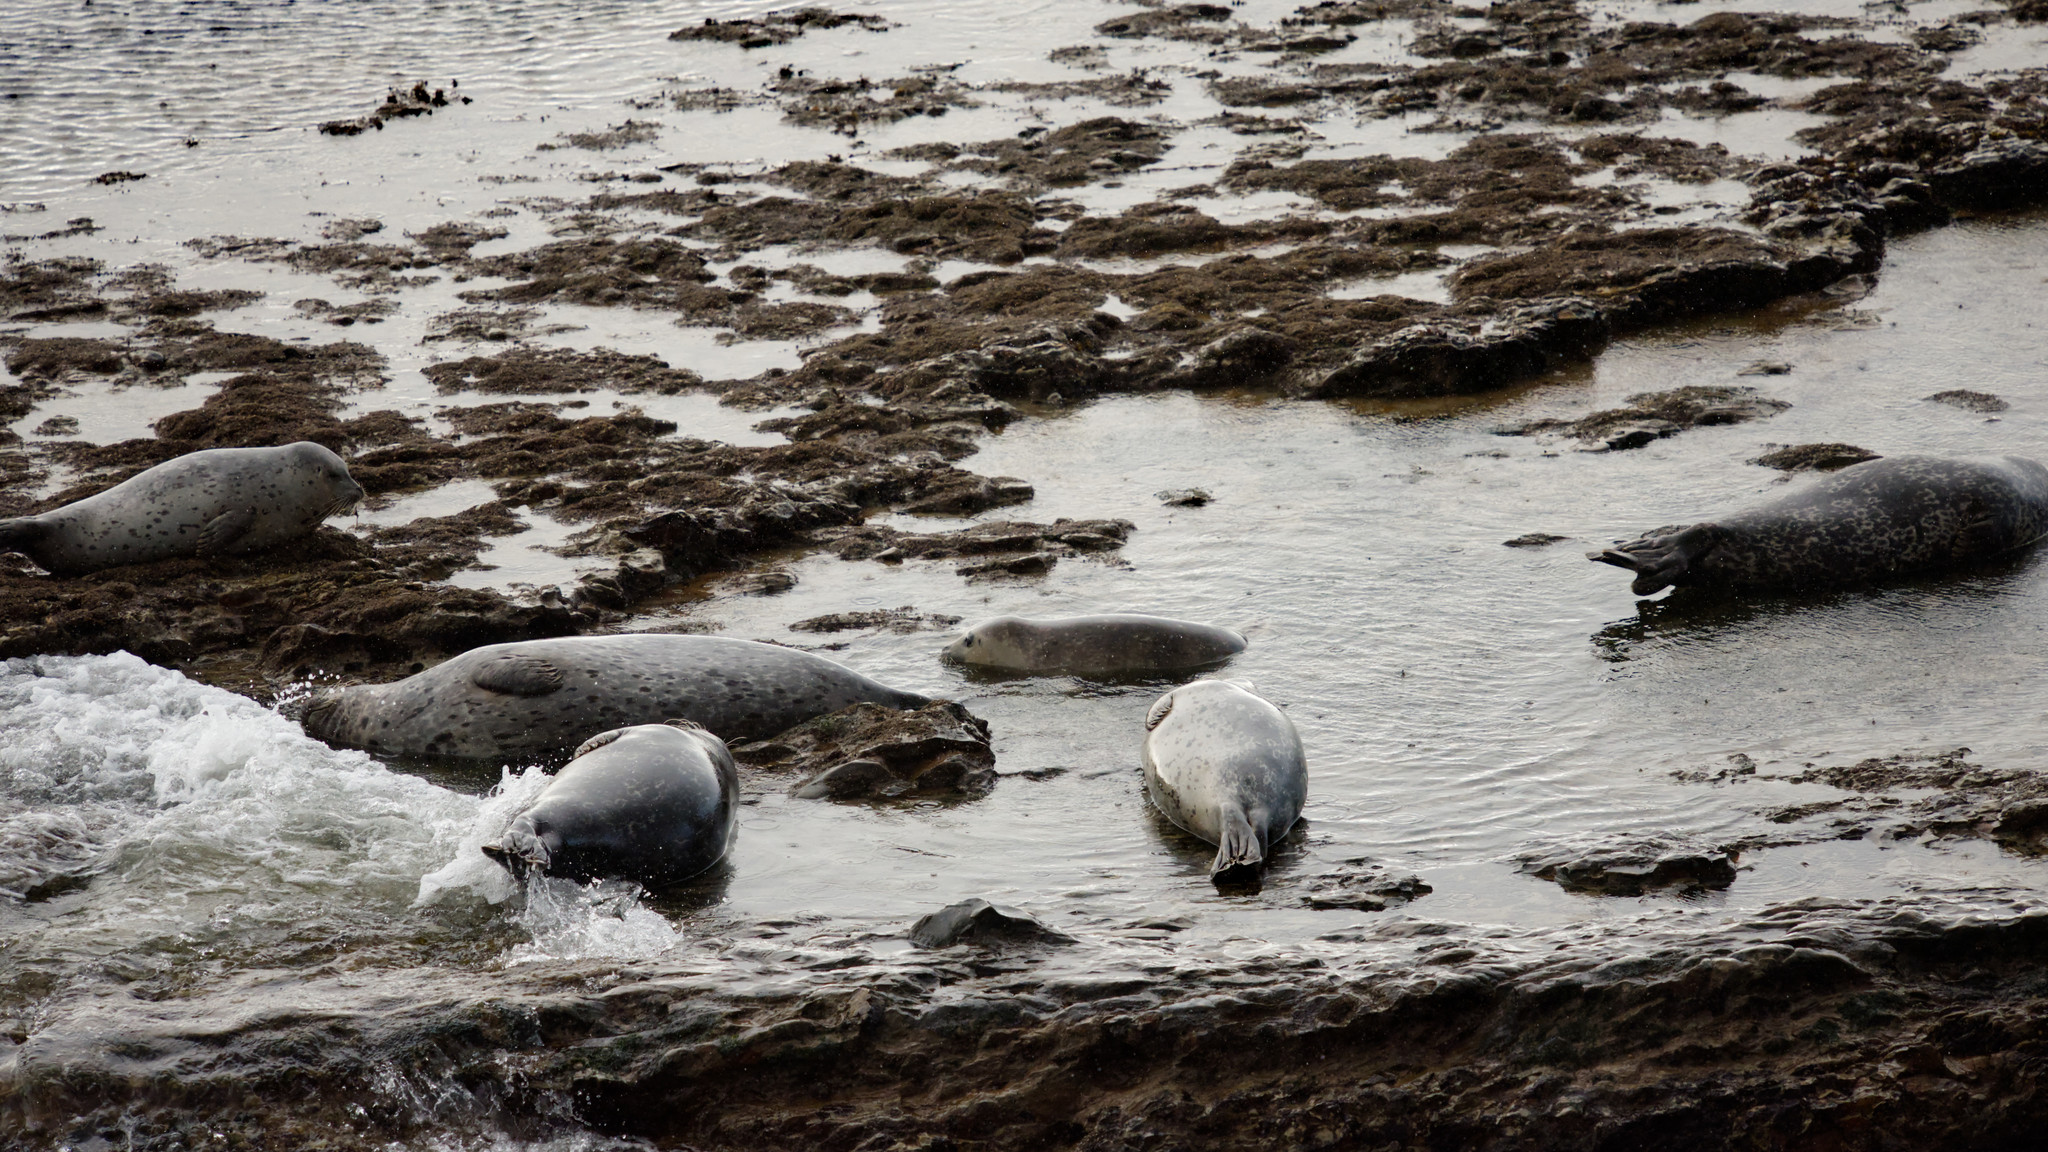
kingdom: Animalia
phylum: Chordata
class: Mammalia
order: Carnivora
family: Phocidae
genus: Phoca
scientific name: Phoca vitulina
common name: Harbor seal
